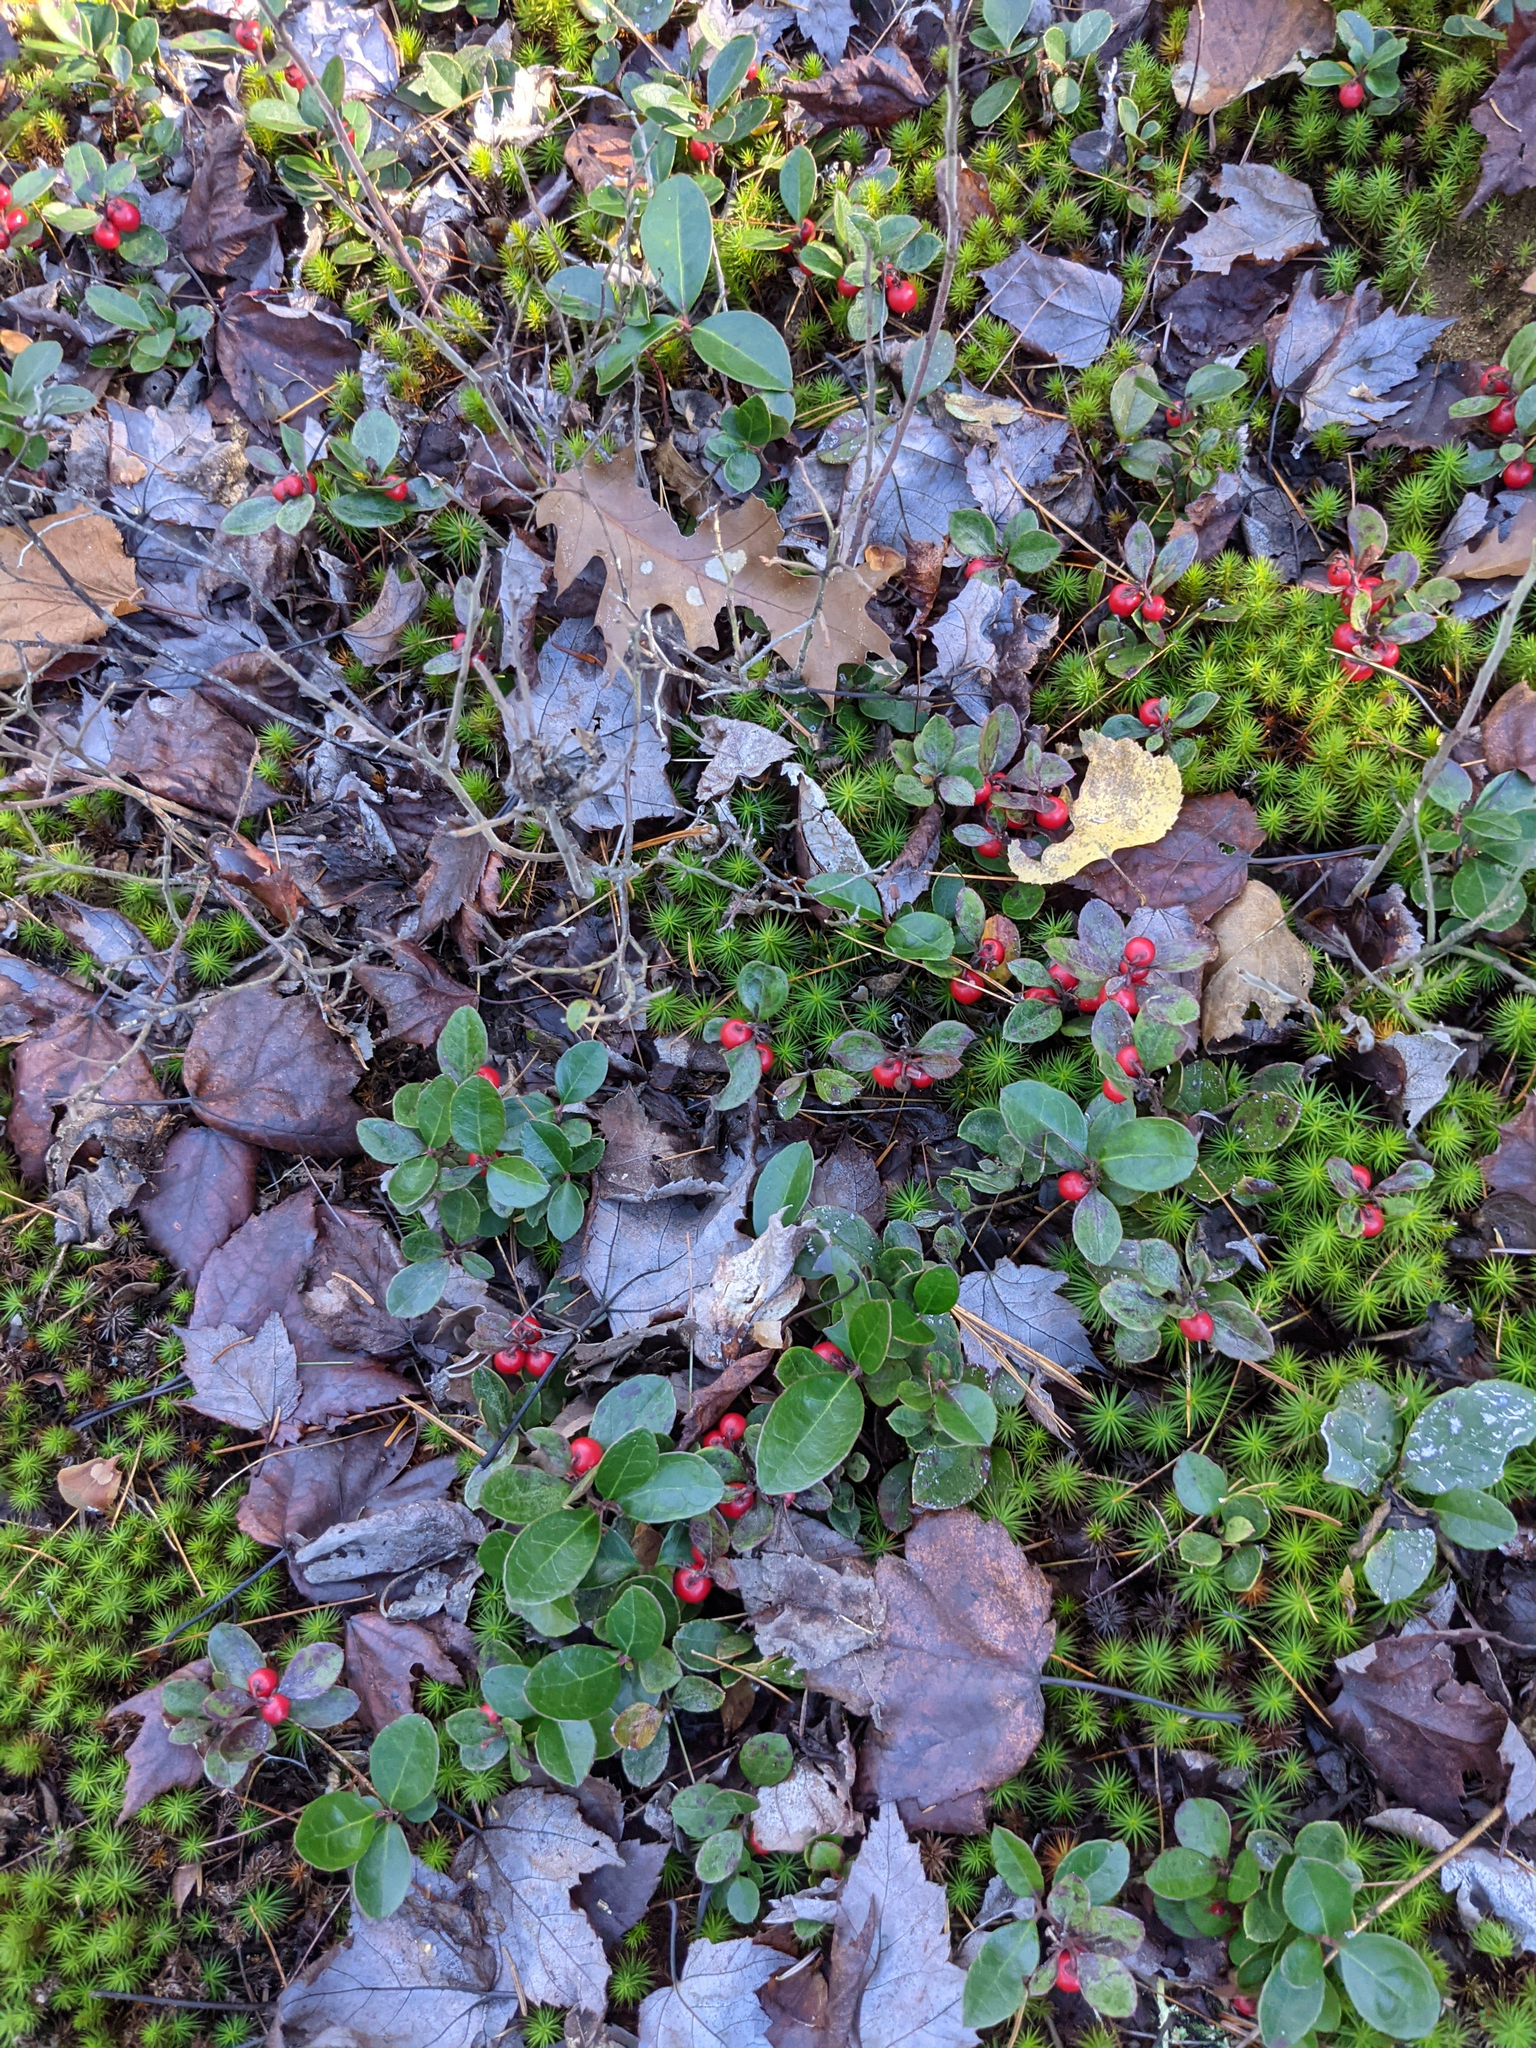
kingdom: Plantae
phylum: Tracheophyta
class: Magnoliopsida
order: Ericales
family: Ericaceae
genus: Gaultheria
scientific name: Gaultheria procumbens
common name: Checkerberry
